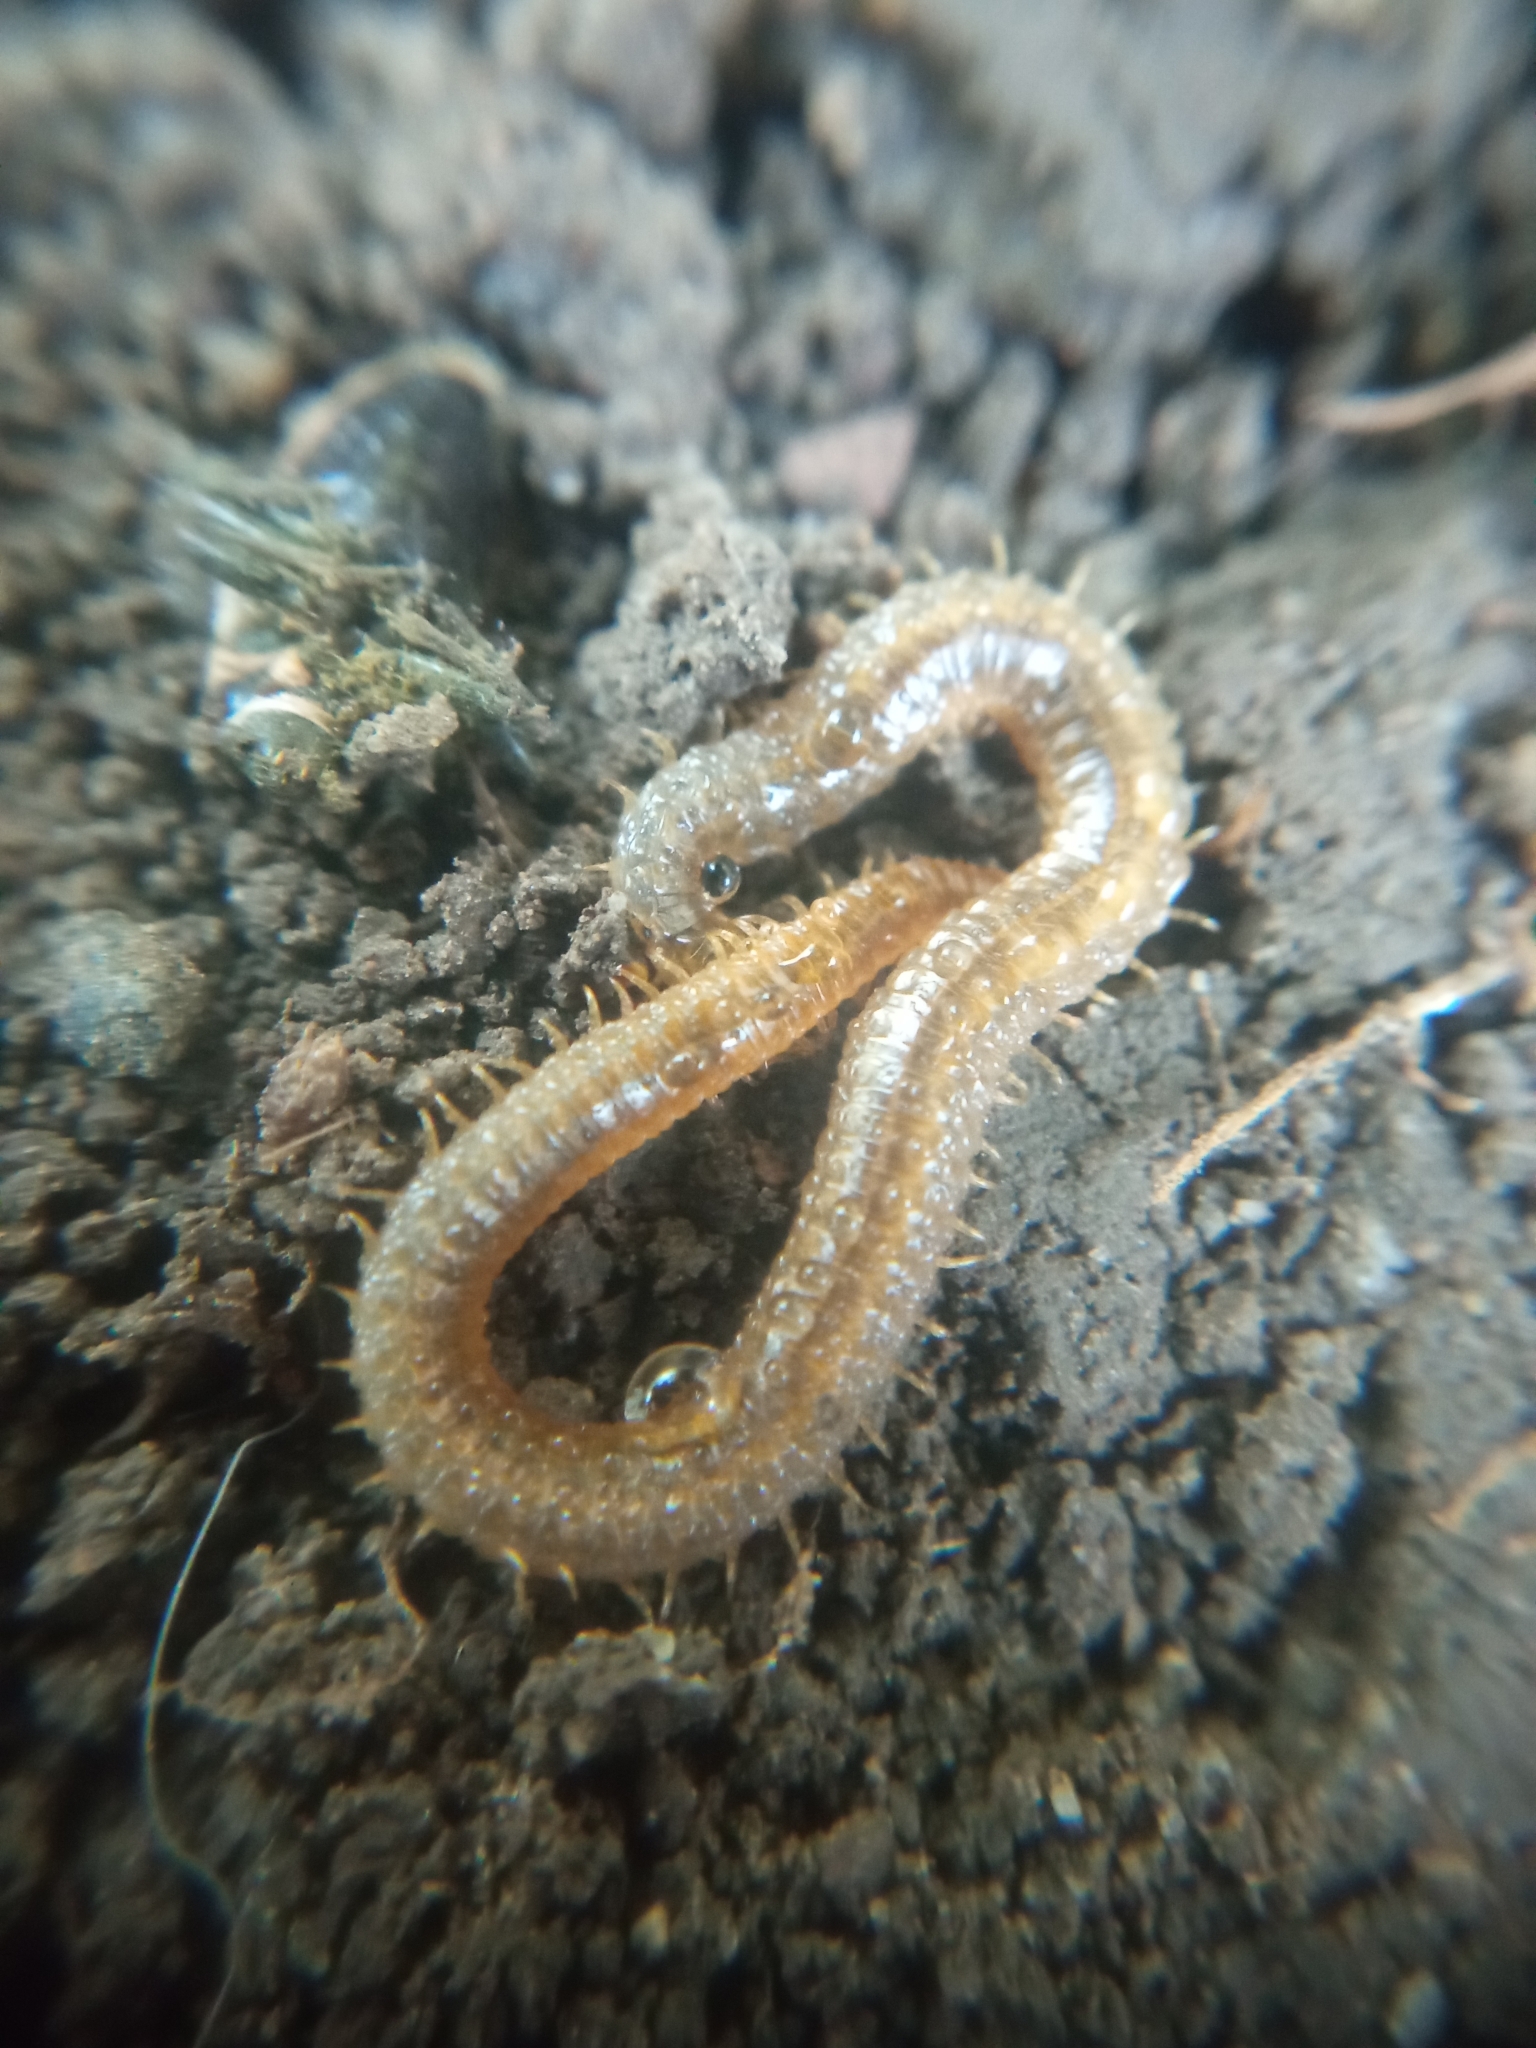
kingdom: Animalia
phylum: Arthropoda
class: Chilopoda
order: Geophilomorpha
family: Dignathodontidae
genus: Henia
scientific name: Henia vesuviana
